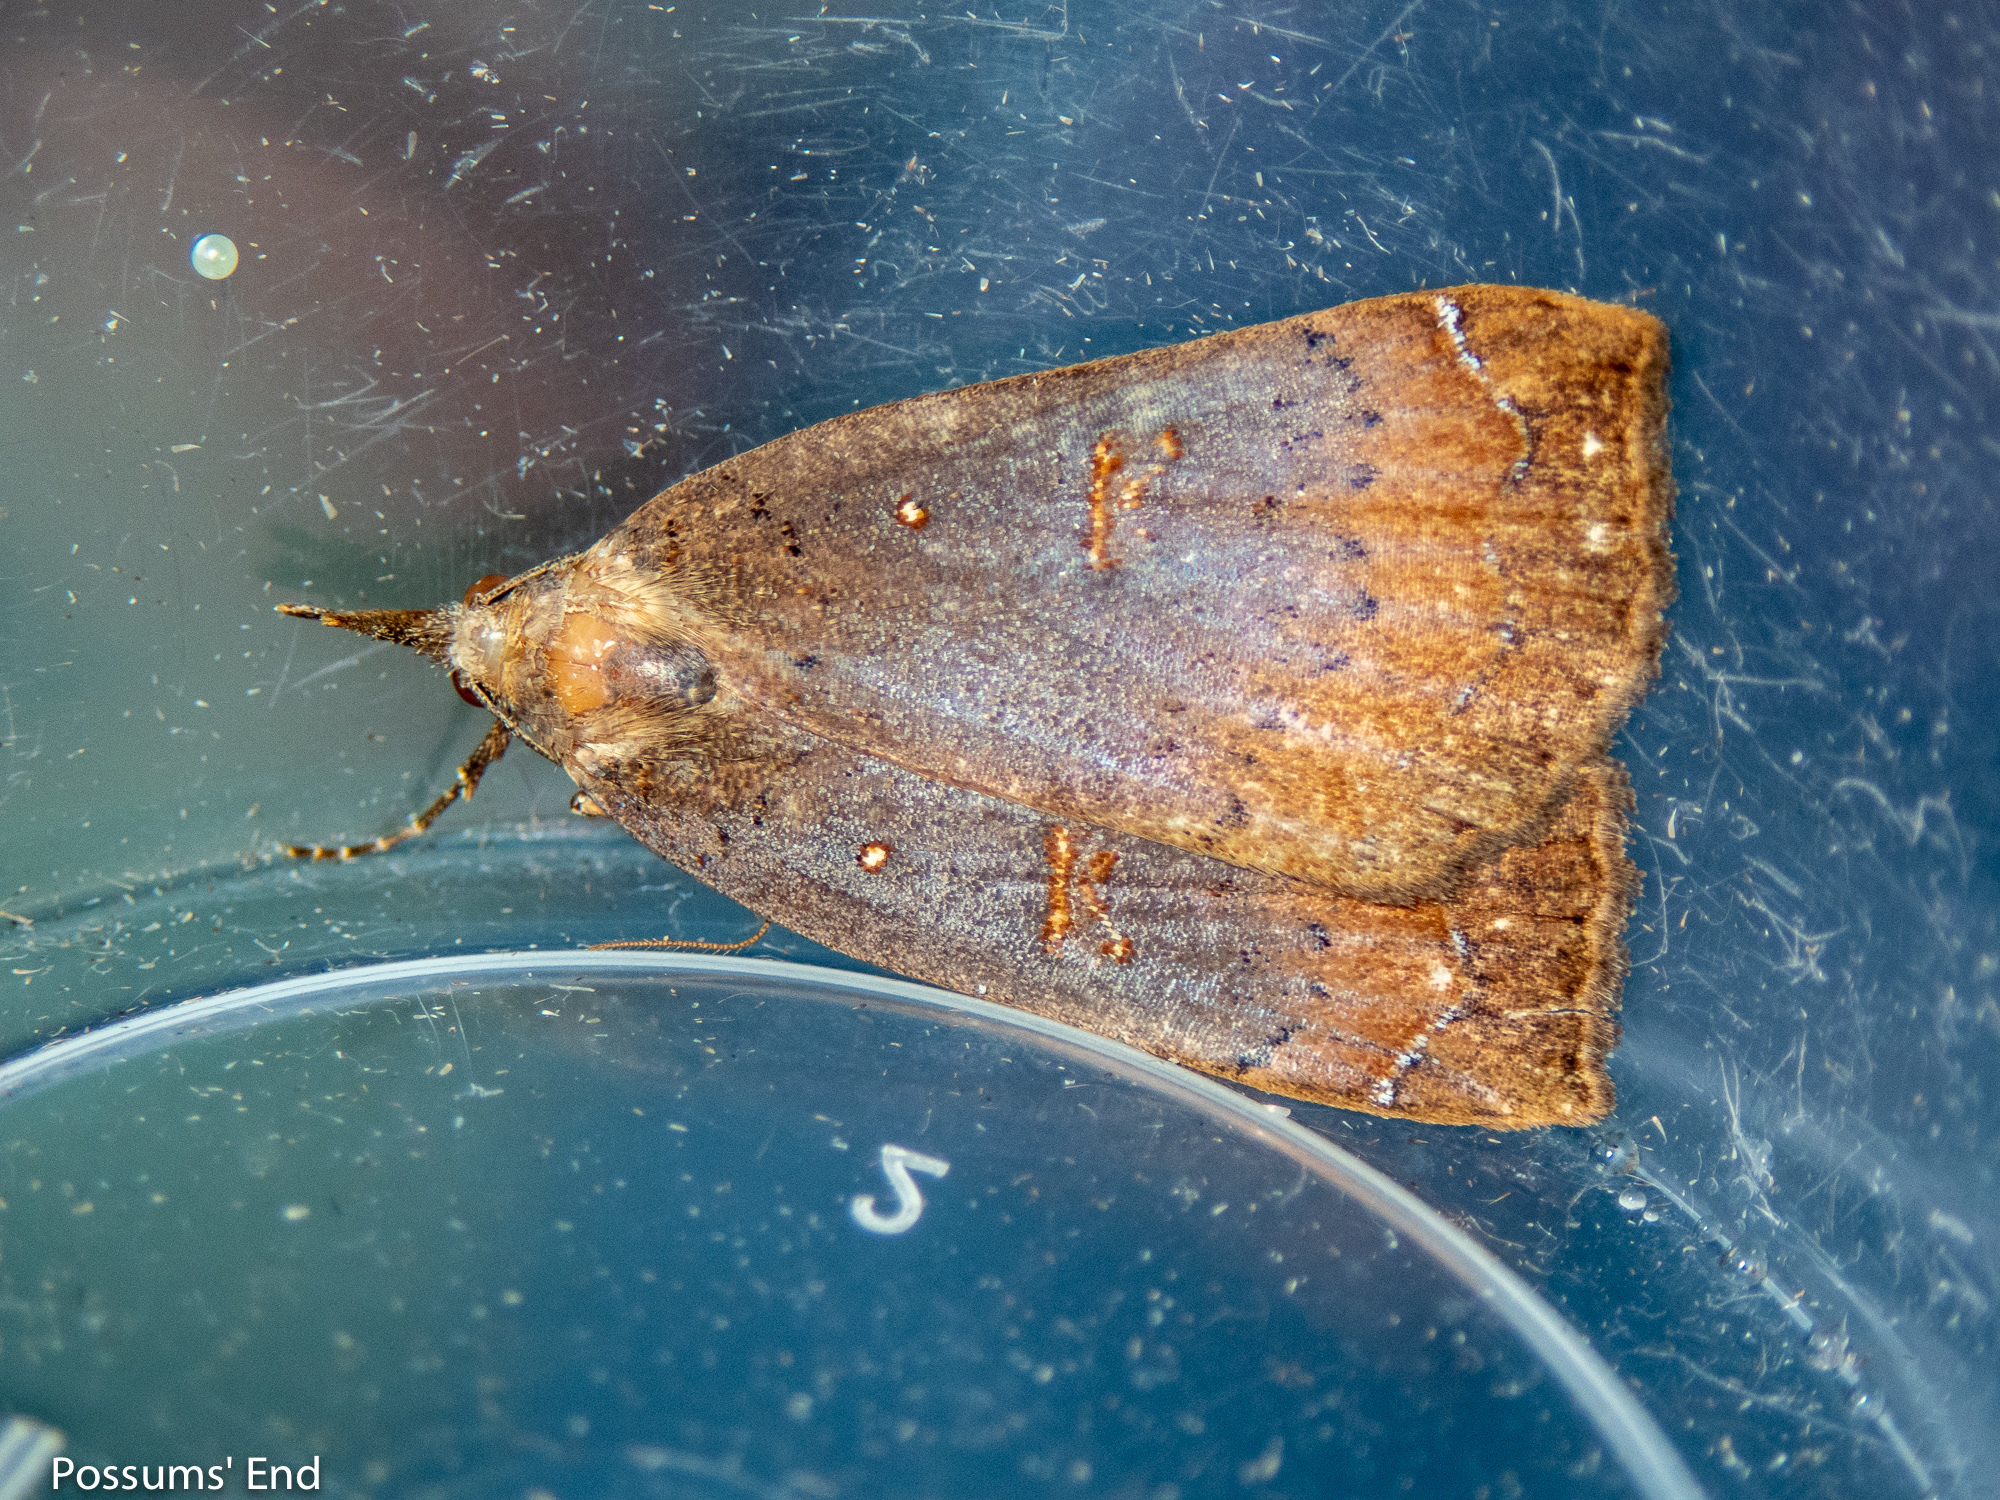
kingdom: Animalia
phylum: Arthropoda
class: Insecta
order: Lepidoptera
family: Erebidae
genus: Rhapsa
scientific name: Rhapsa scotosialis
